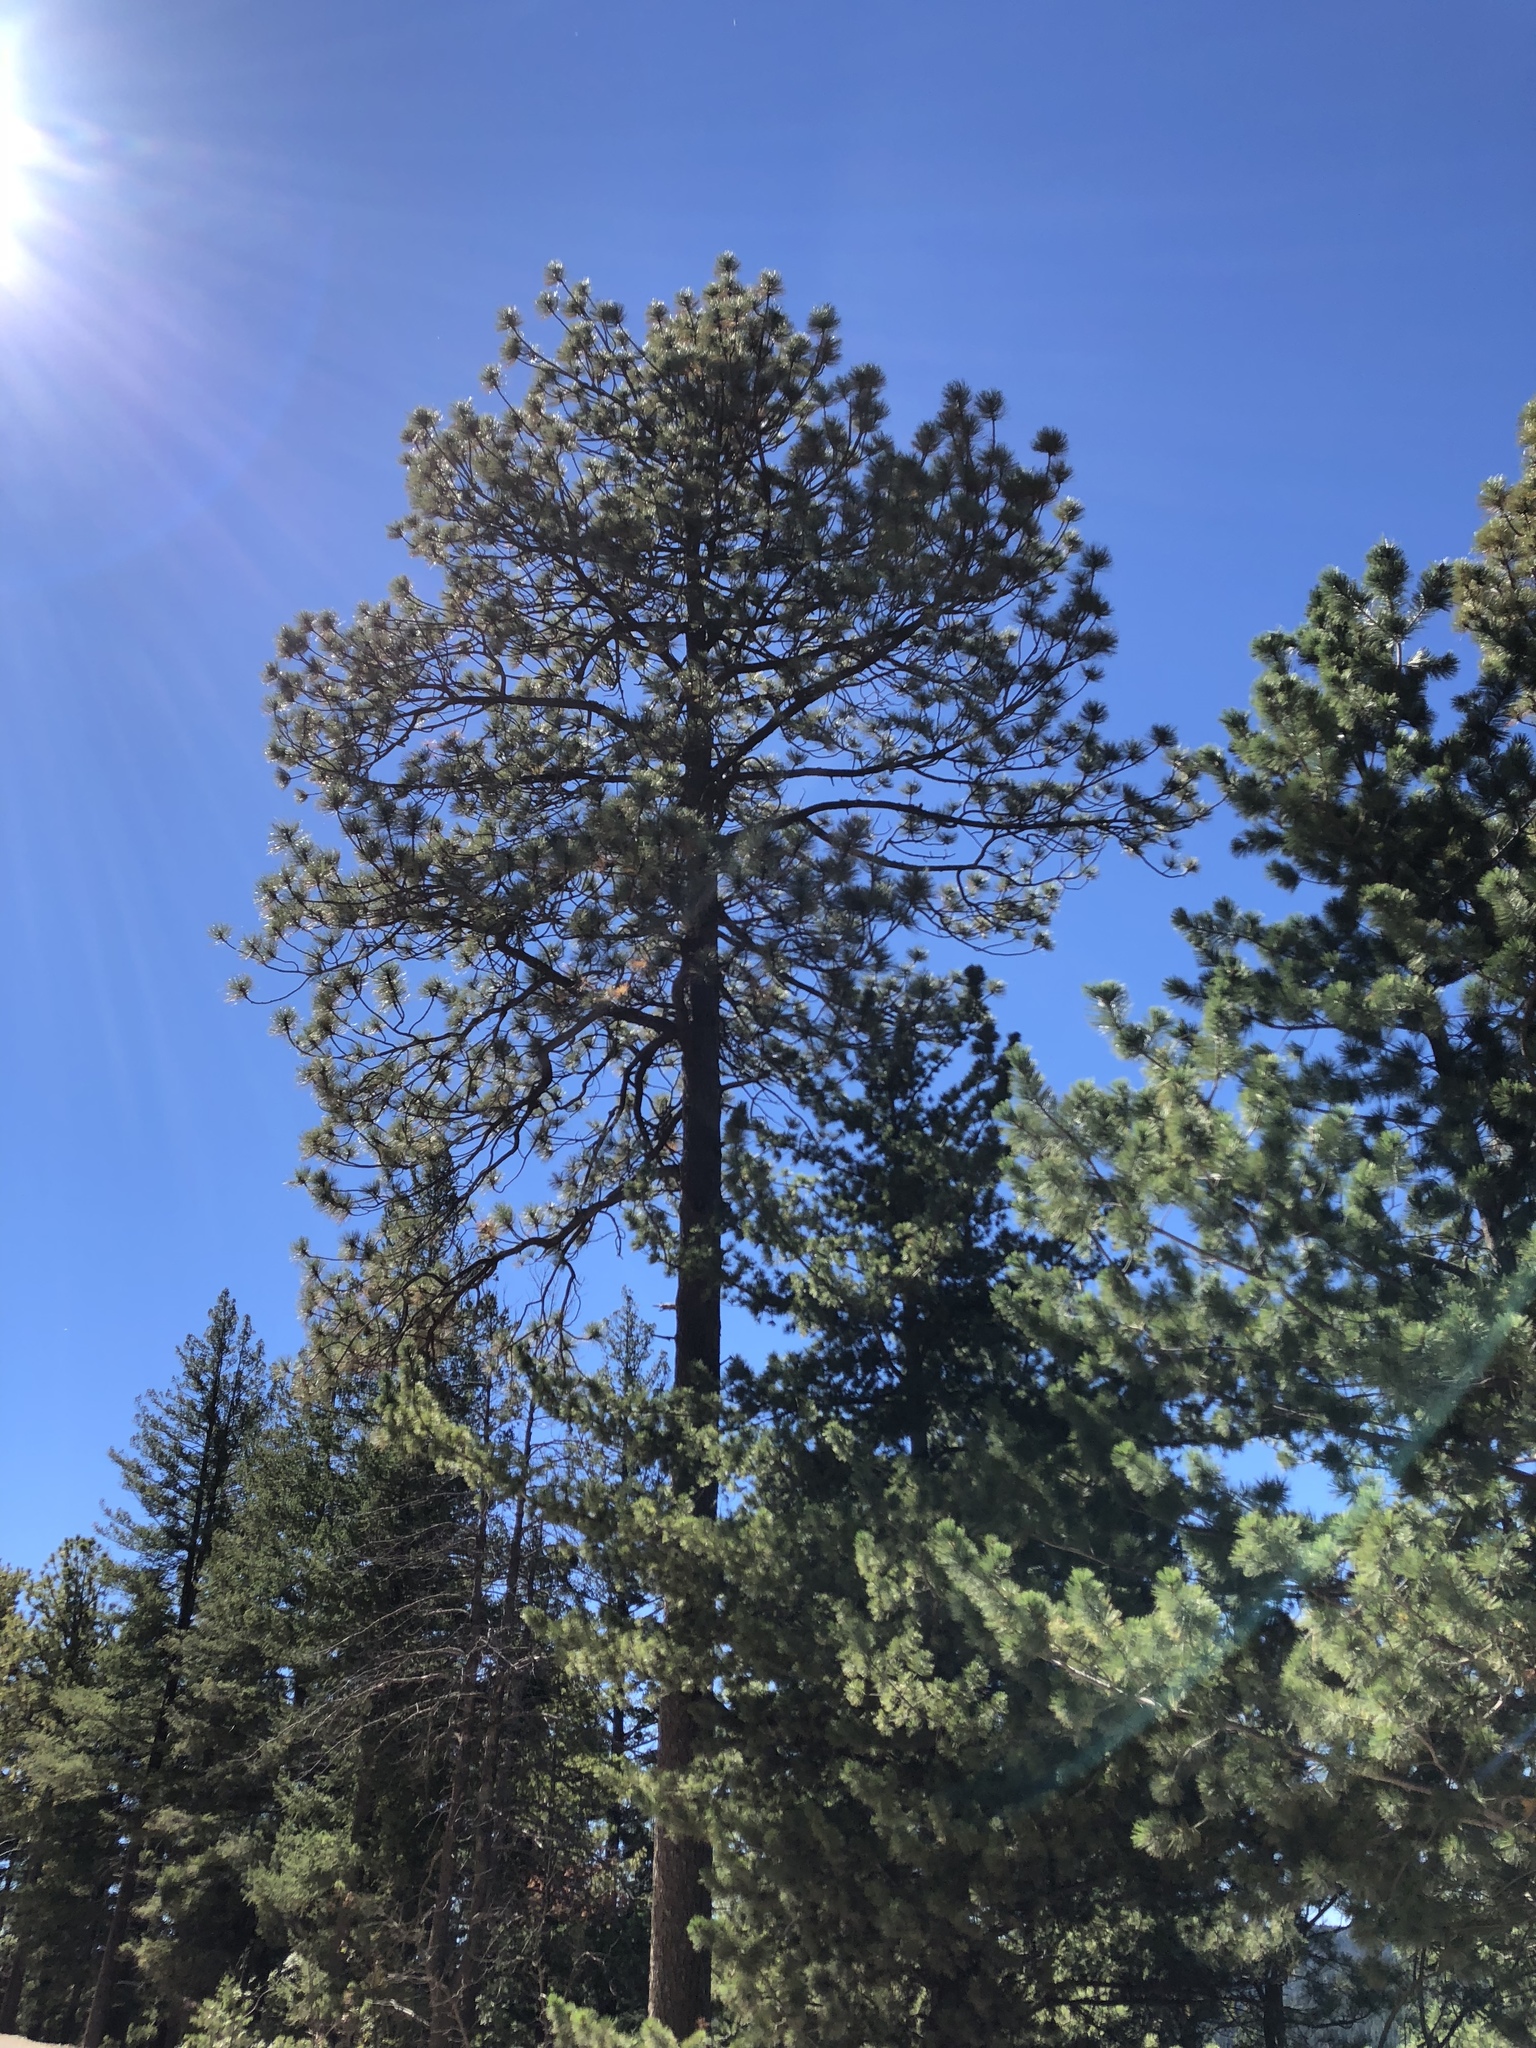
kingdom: Plantae
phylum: Tracheophyta
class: Pinopsida
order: Pinales
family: Pinaceae
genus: Pinus
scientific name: Pinus ponderosa
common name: Western yellow-pine
